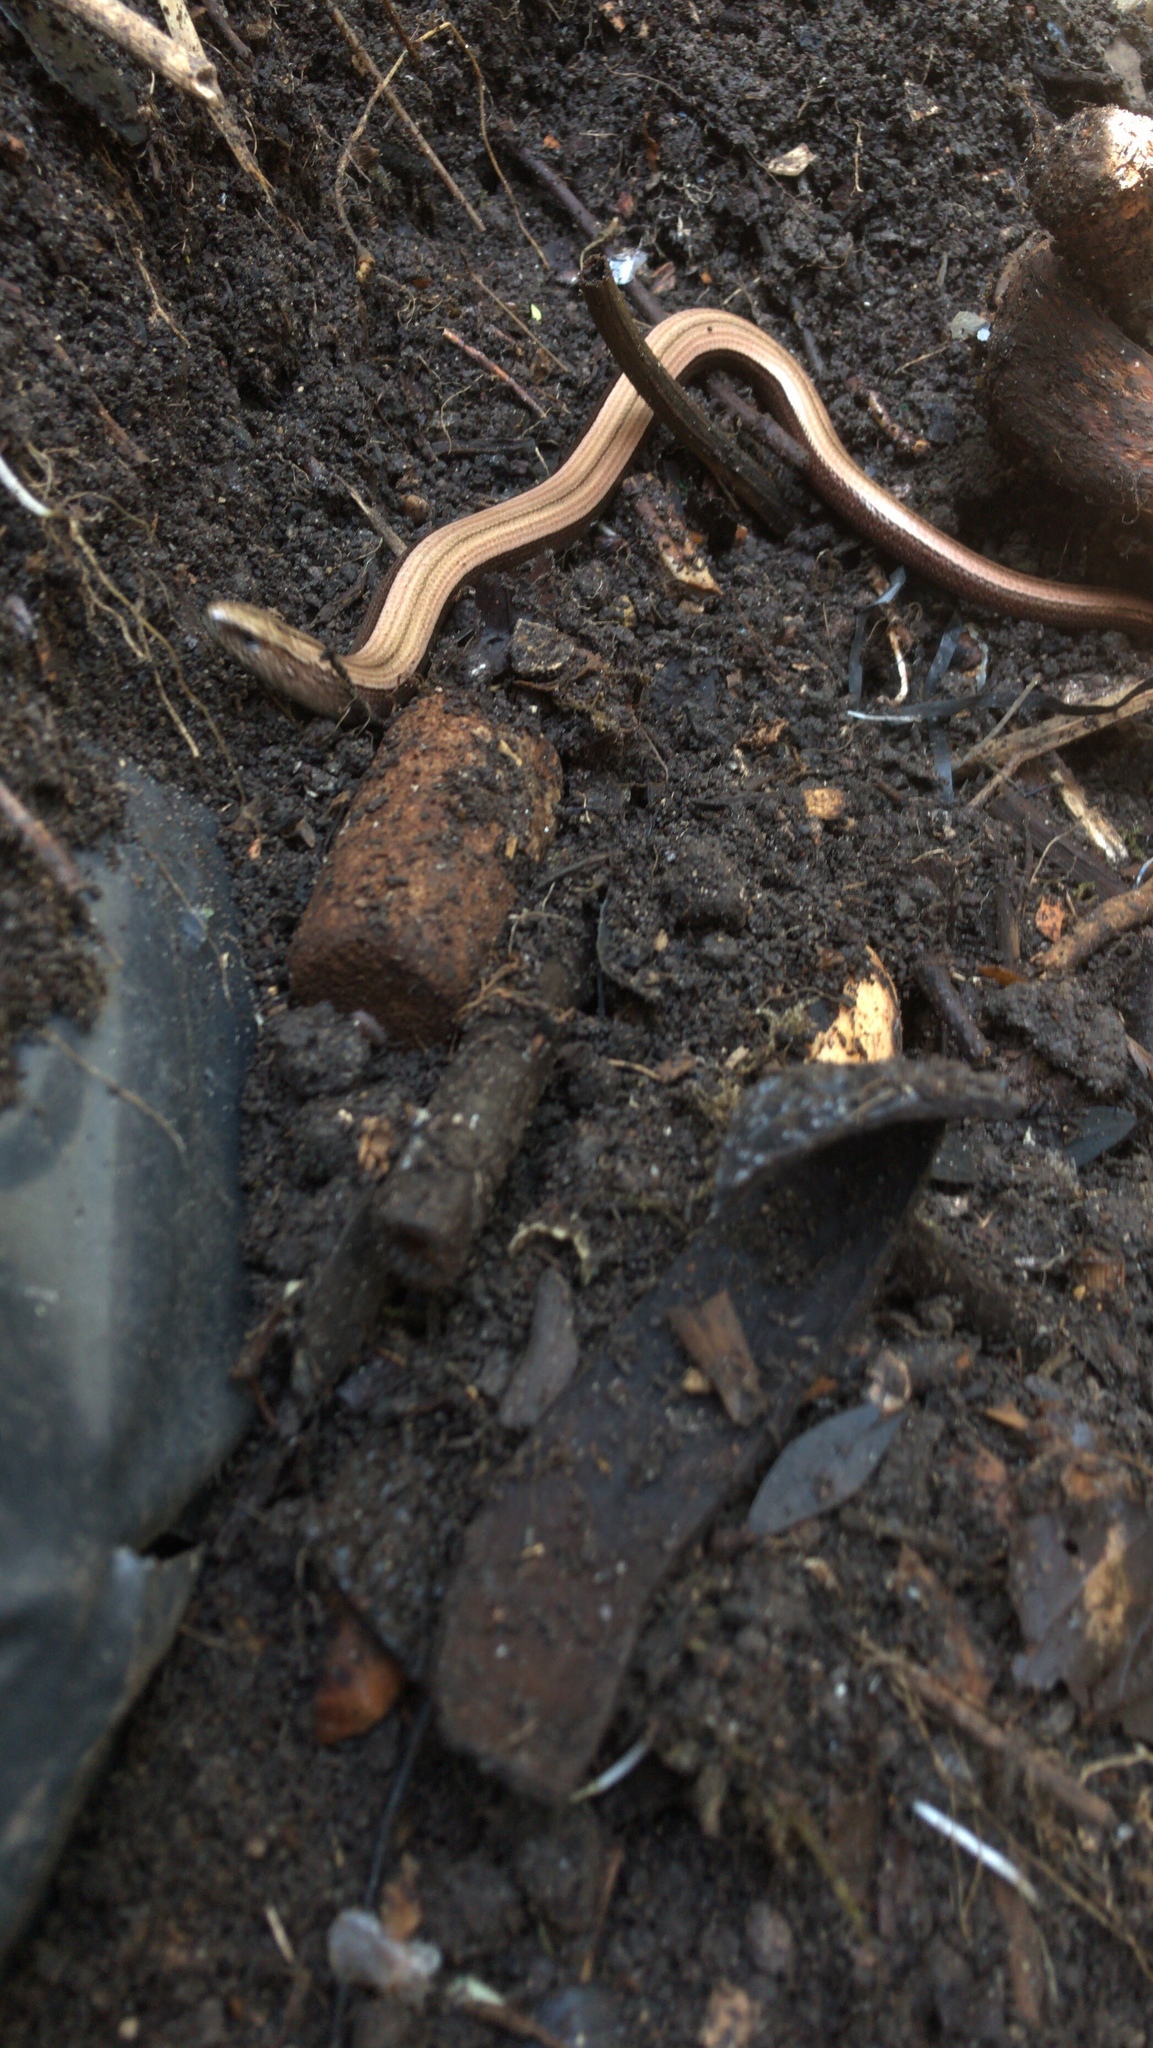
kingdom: Animalia
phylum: Chordata
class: Squamata
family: Anguidae
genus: Anguis
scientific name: Anguis fragilis
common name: Slow worm
